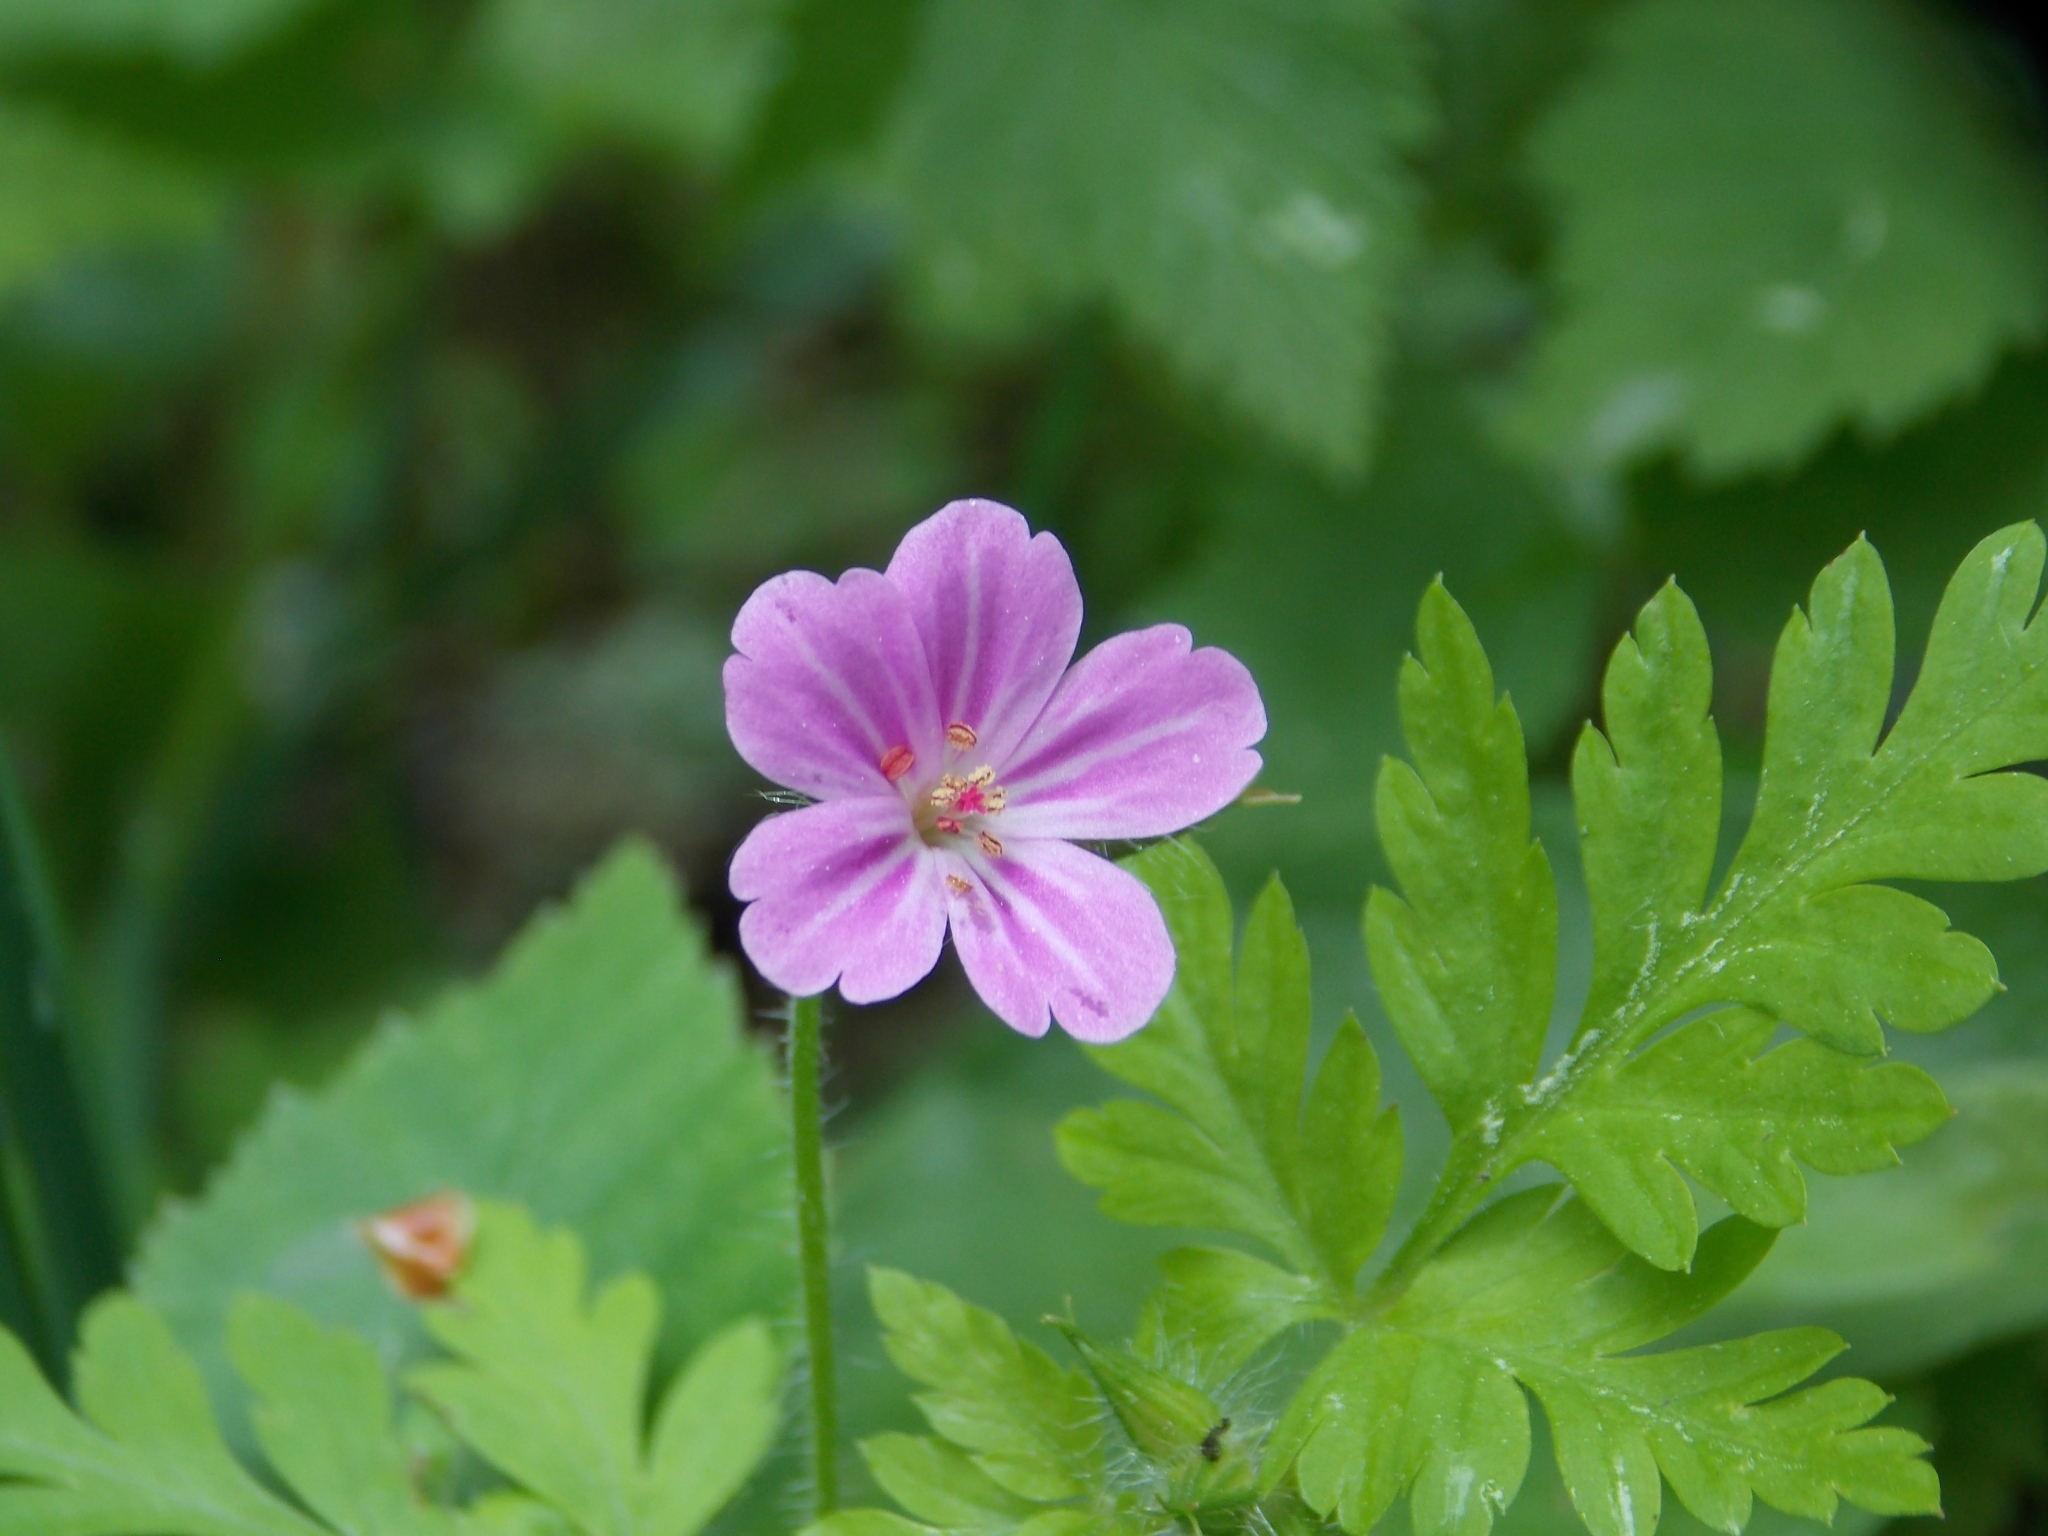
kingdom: Plantae
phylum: Tracheophyta
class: Magnoliopsida
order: Geraniales
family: Geraniaceae
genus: Geranium
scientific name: Geranium robertianum
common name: Herb-robert
